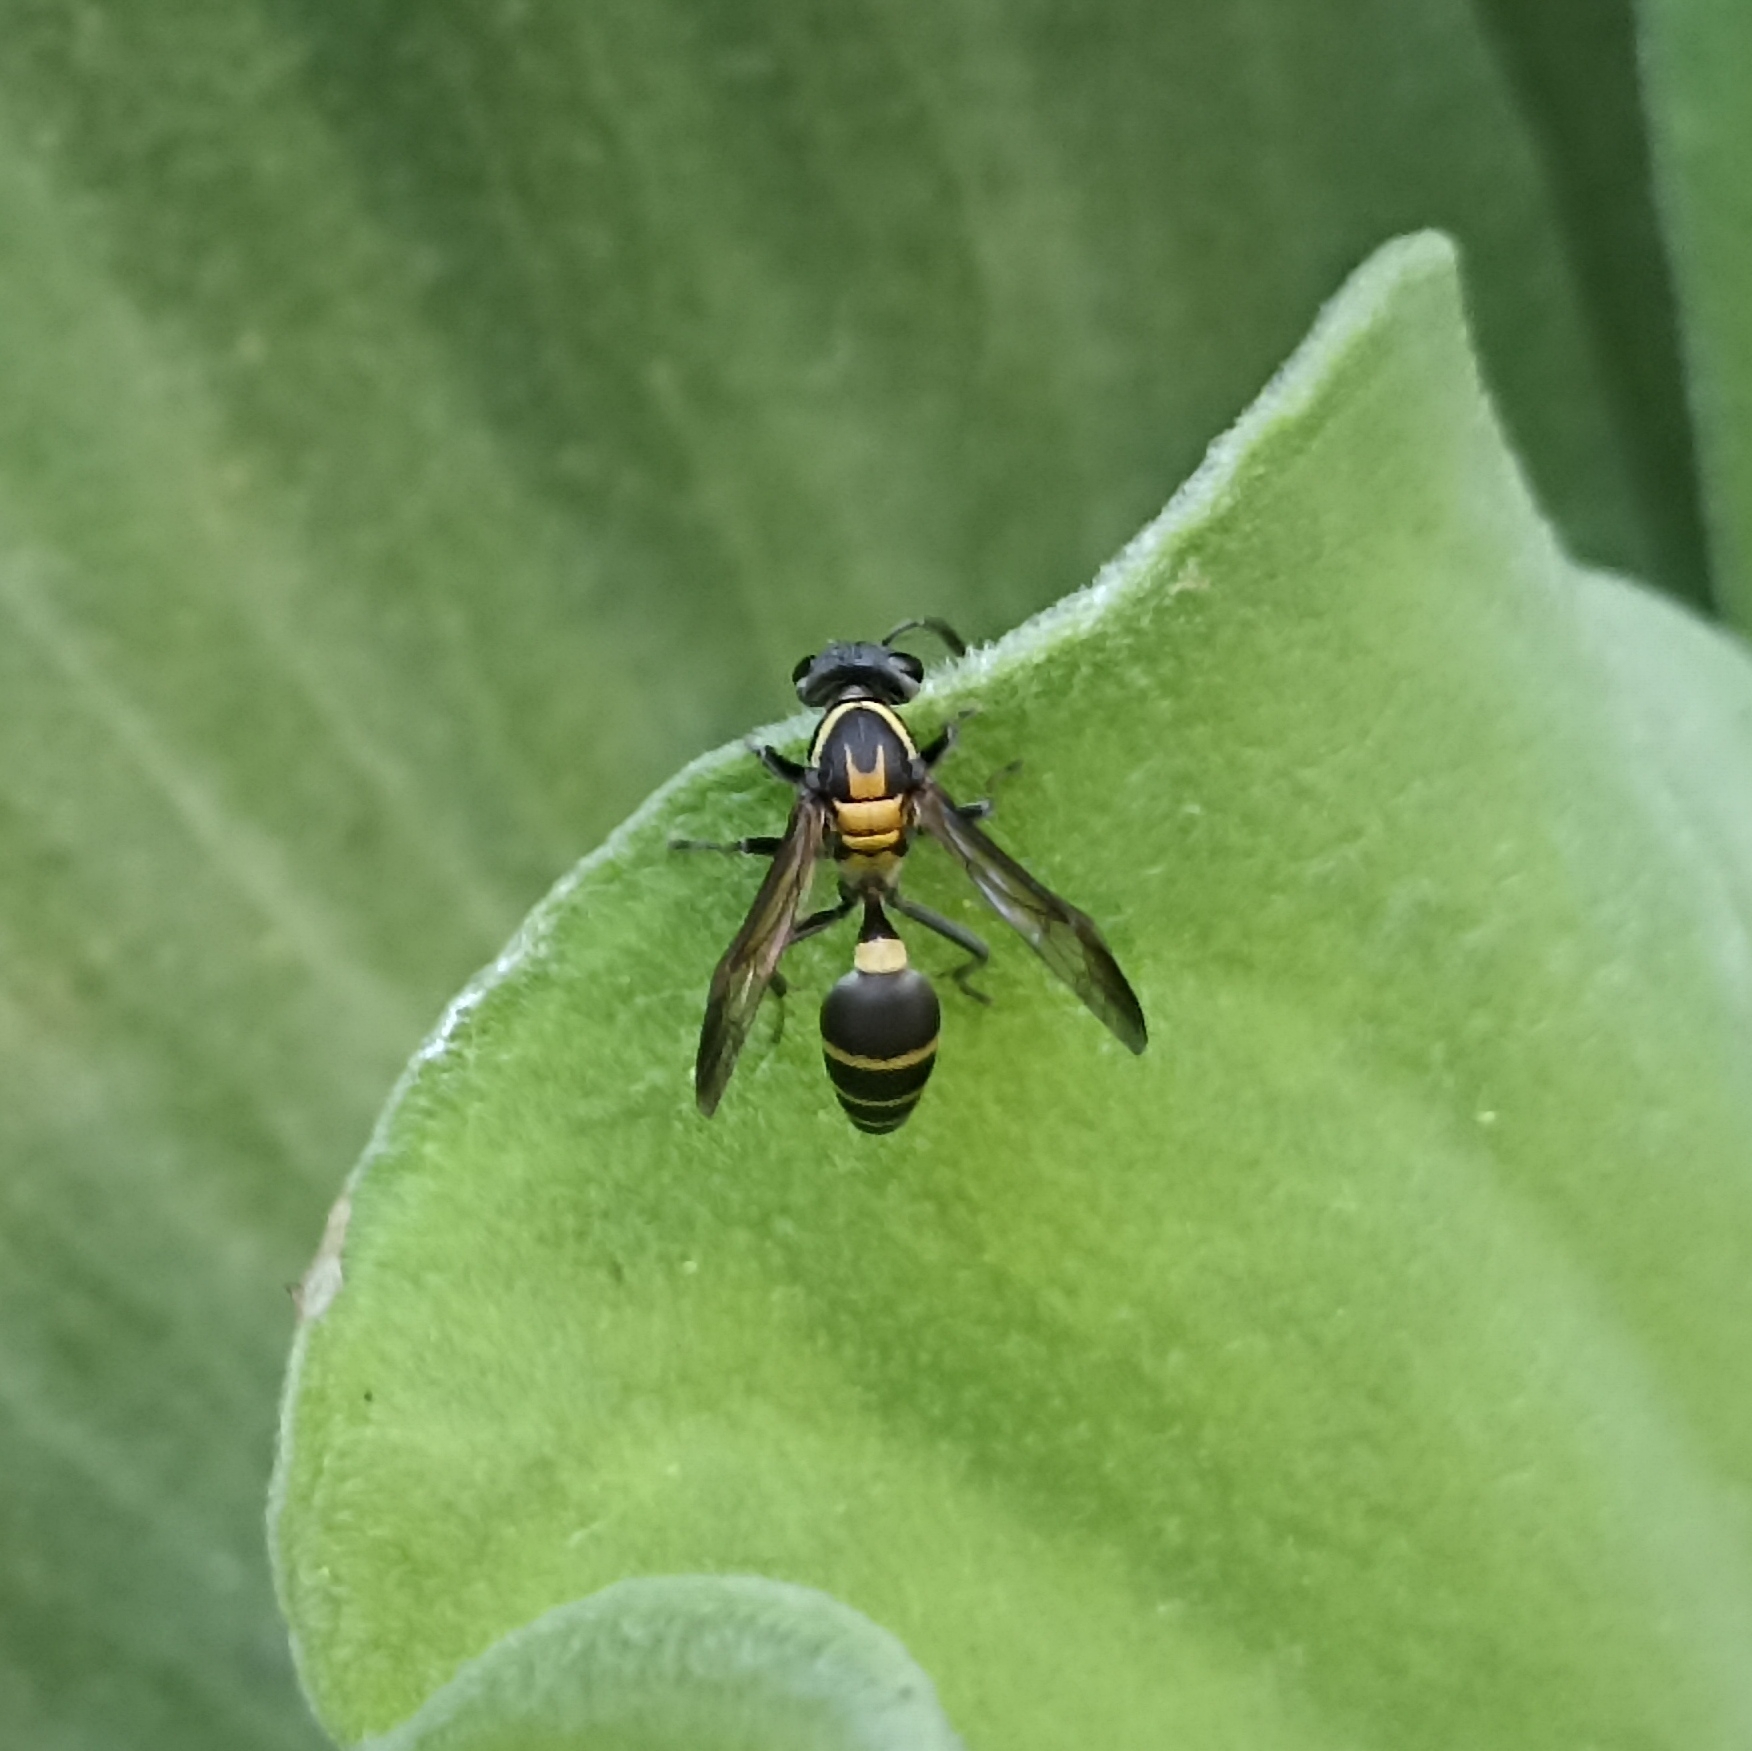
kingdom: Animalia
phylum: Arthropoda
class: Insecta
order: Hymenoptera
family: Eumenidae
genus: Polybia
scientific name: Polybia occidentalis
